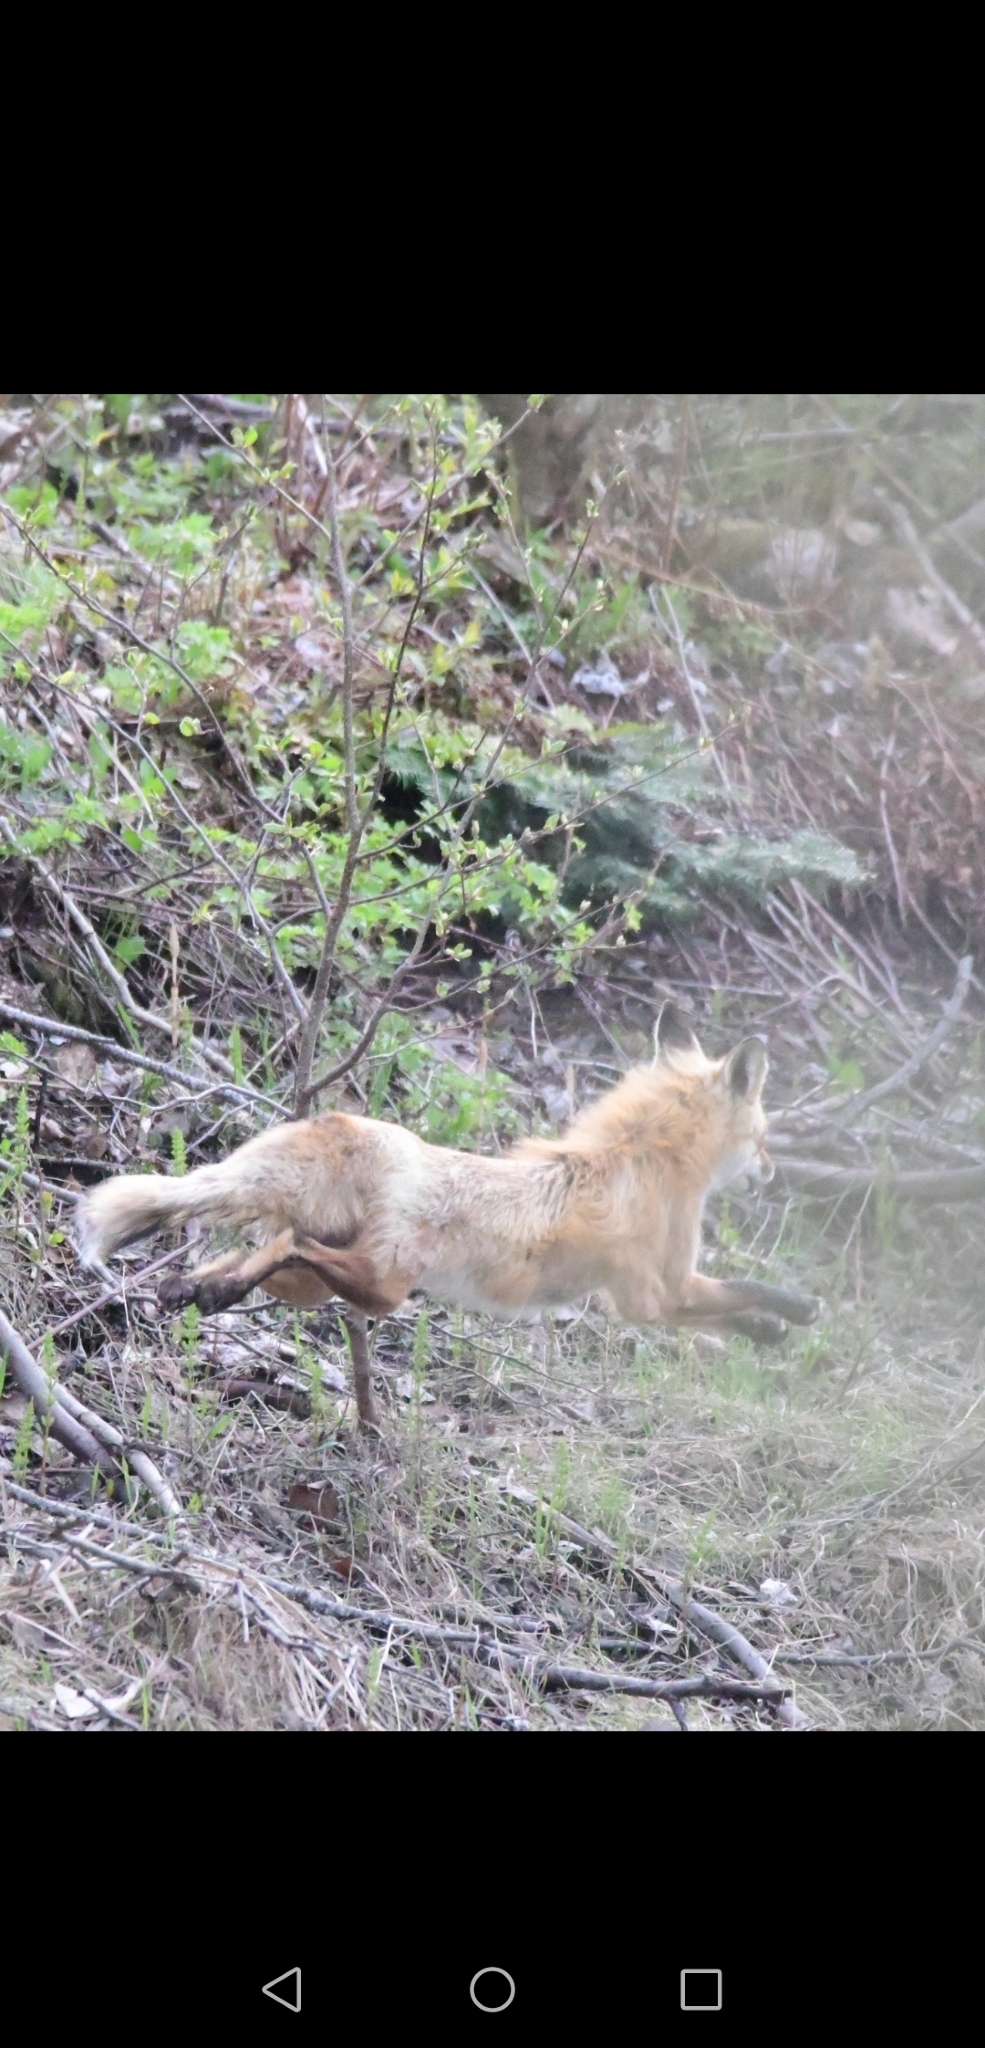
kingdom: Animalia
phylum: Chordata
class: Mammalia
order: Carnivora
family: Canidae
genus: Vulpes
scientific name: Vulpes vulpes
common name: Red fox
